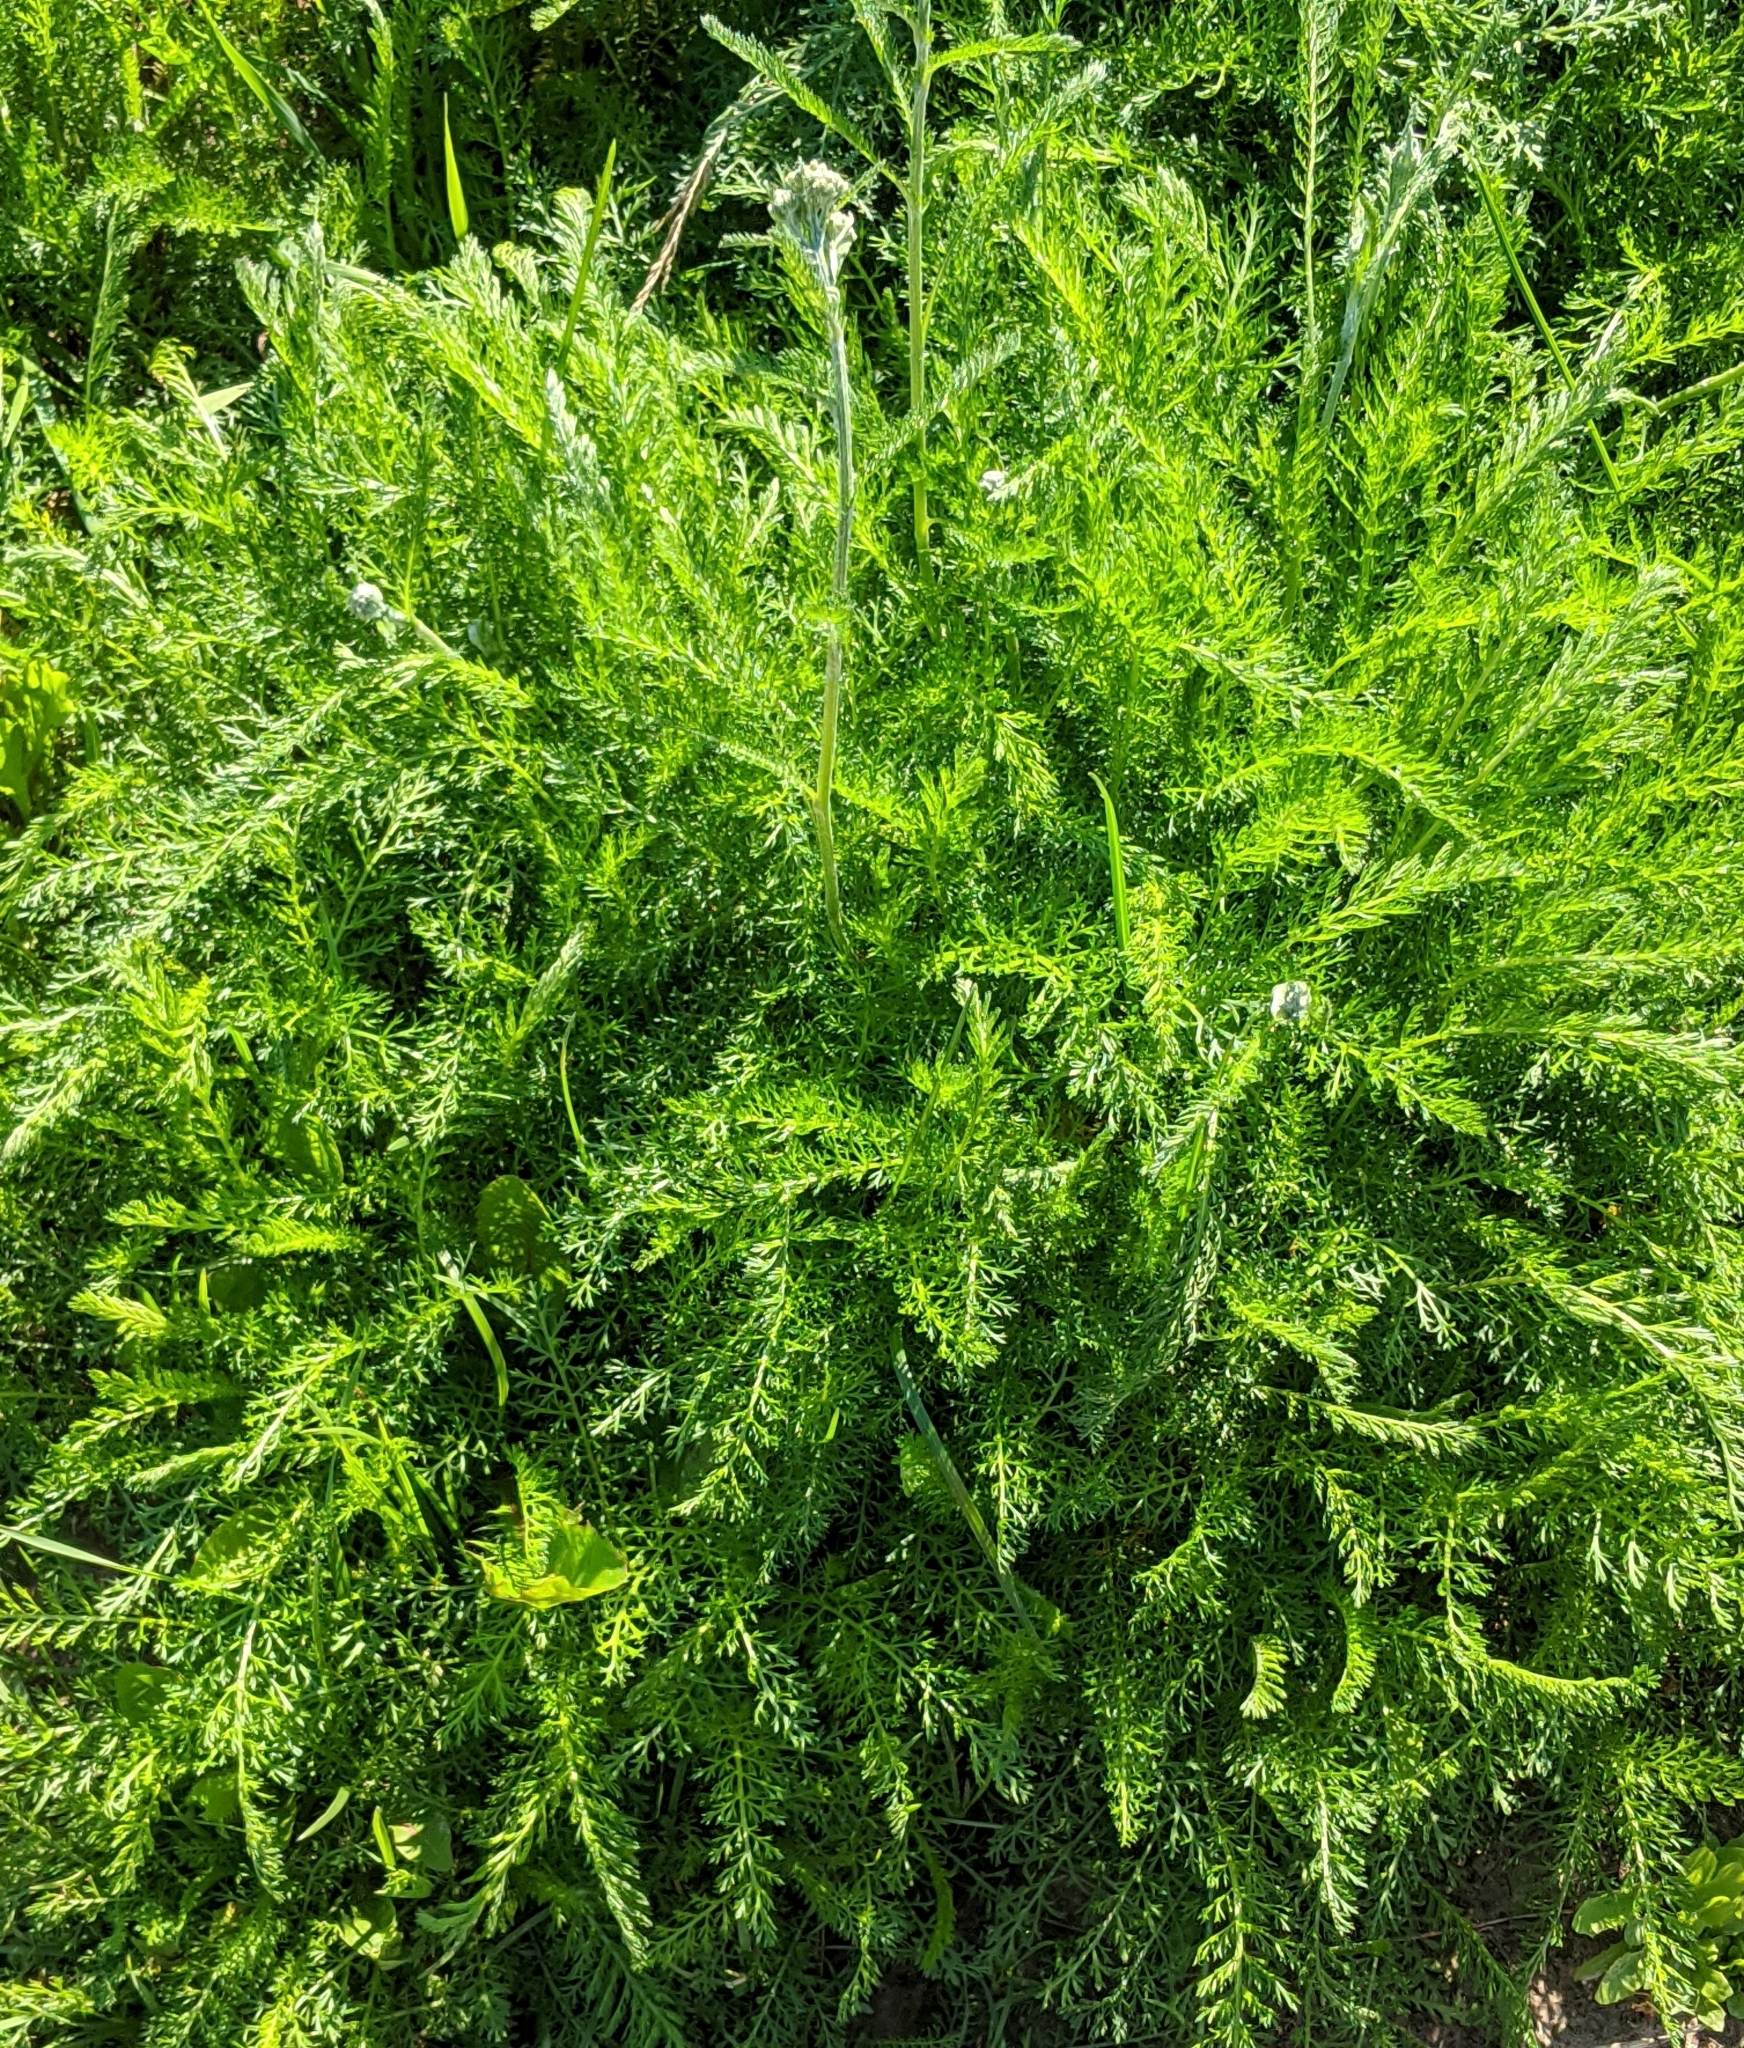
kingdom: Plantae
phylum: Tracheophyta
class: Magnoliopsida
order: Asterales
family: Asteraceae
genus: Achillea
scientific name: Achillea millefolium
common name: Yarrow
